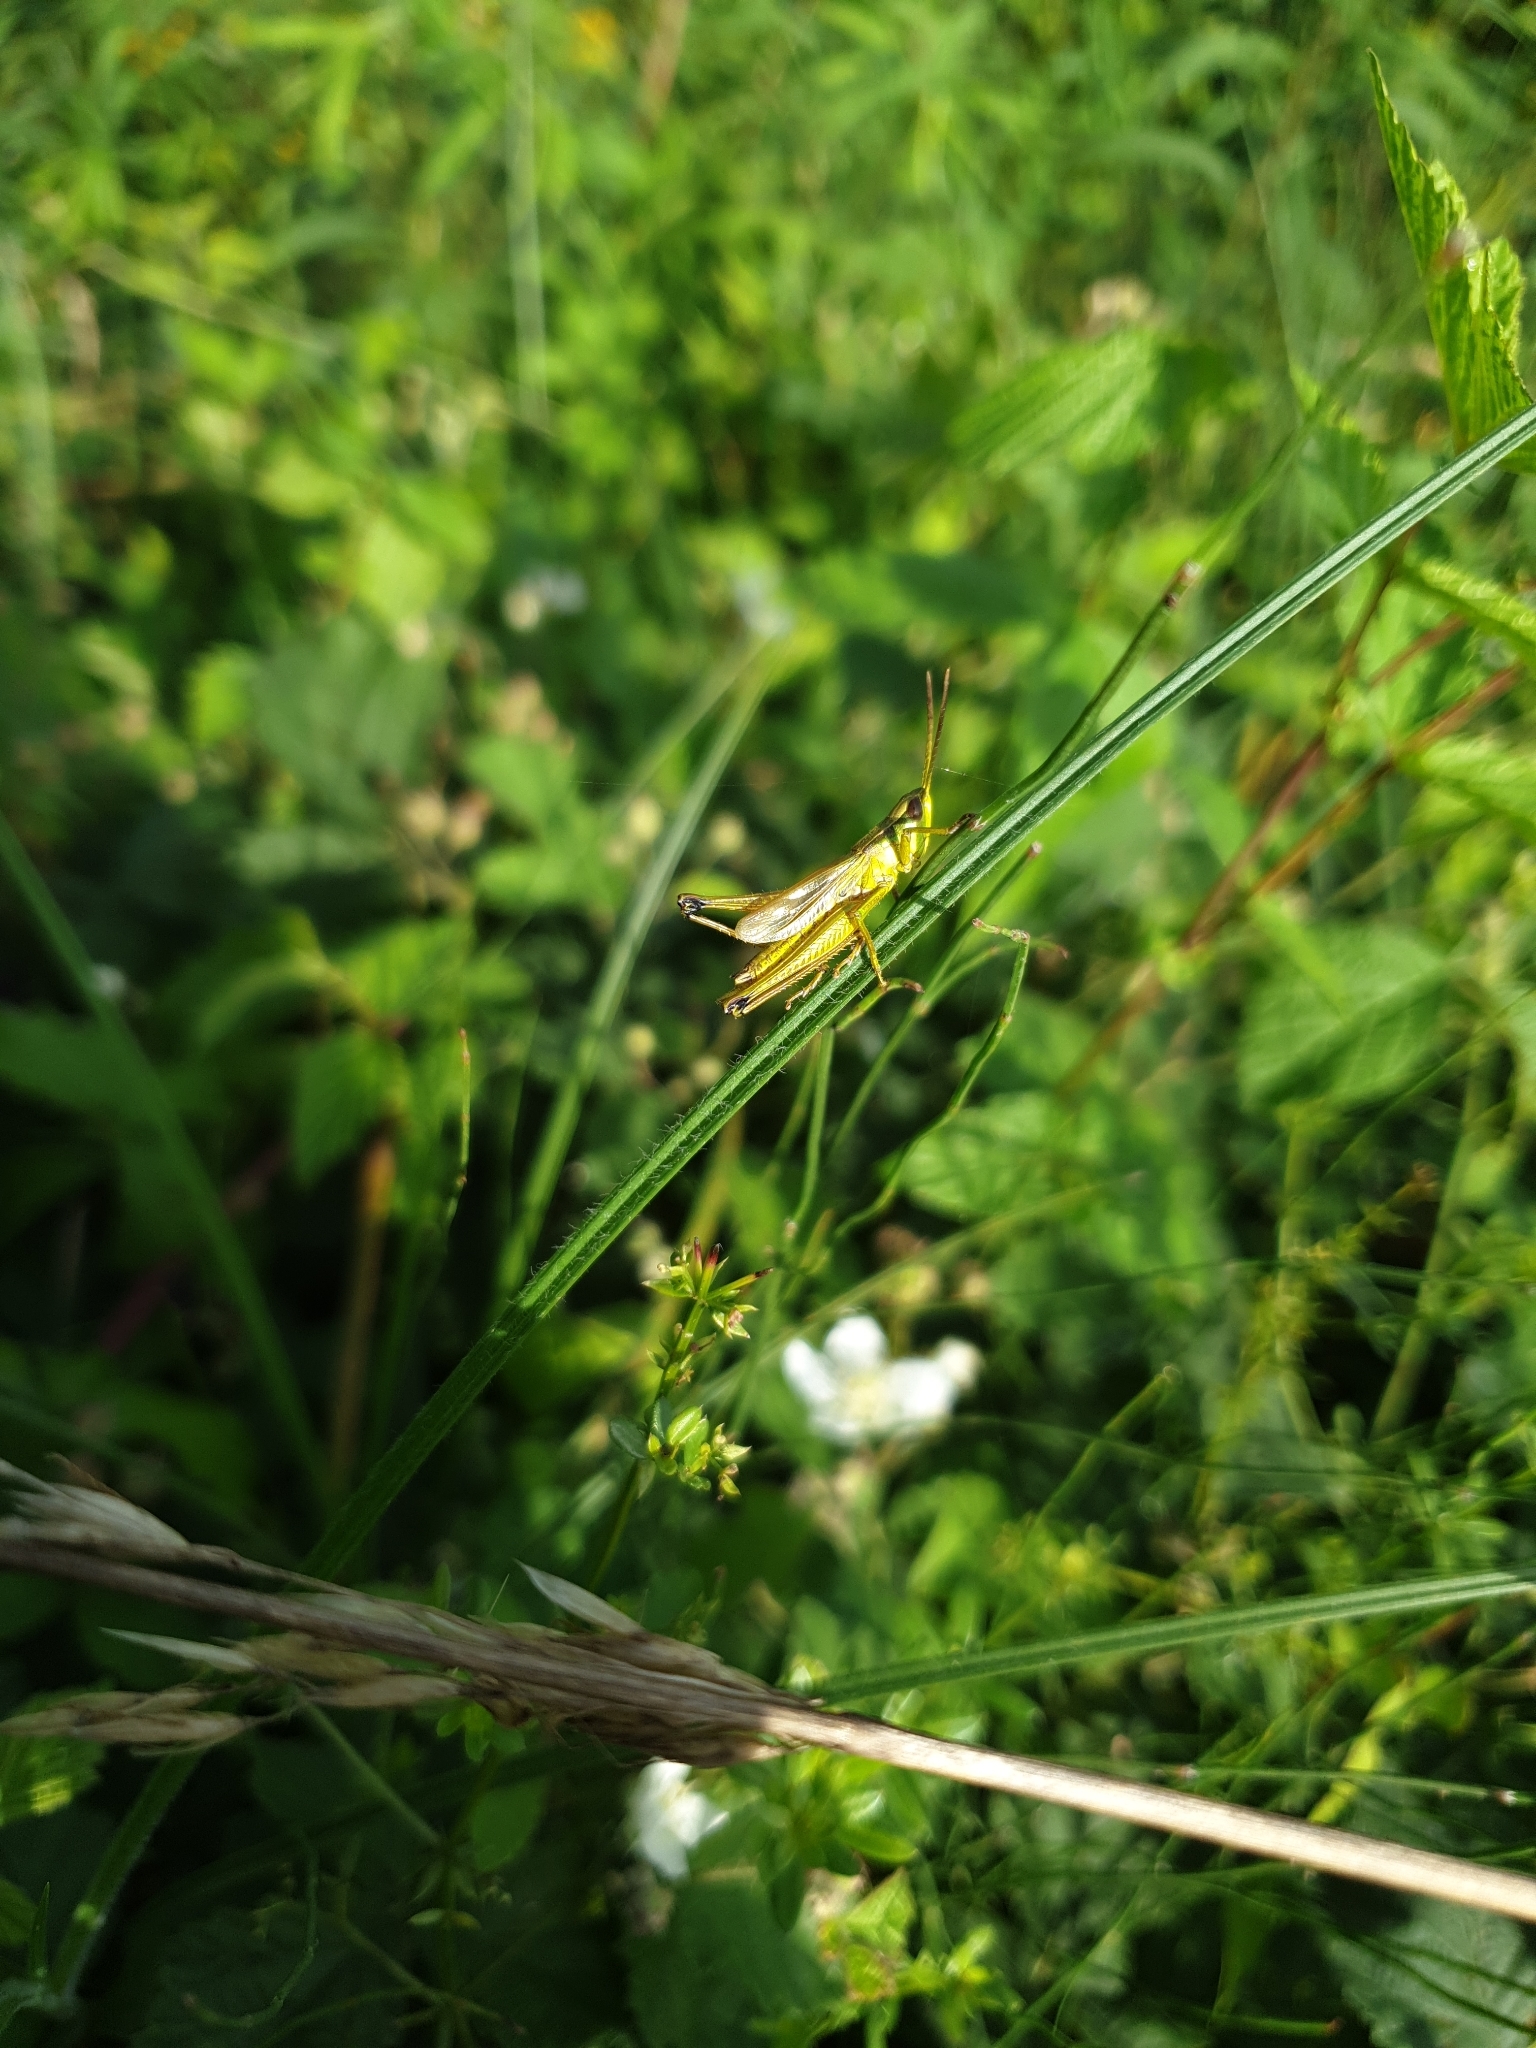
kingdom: Animalia
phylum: Arthropoda
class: Insecta
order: Orthoptera
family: Acrididae
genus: Chrysochraon
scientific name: Chrysochraon dispar
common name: Large gold grasshopper
